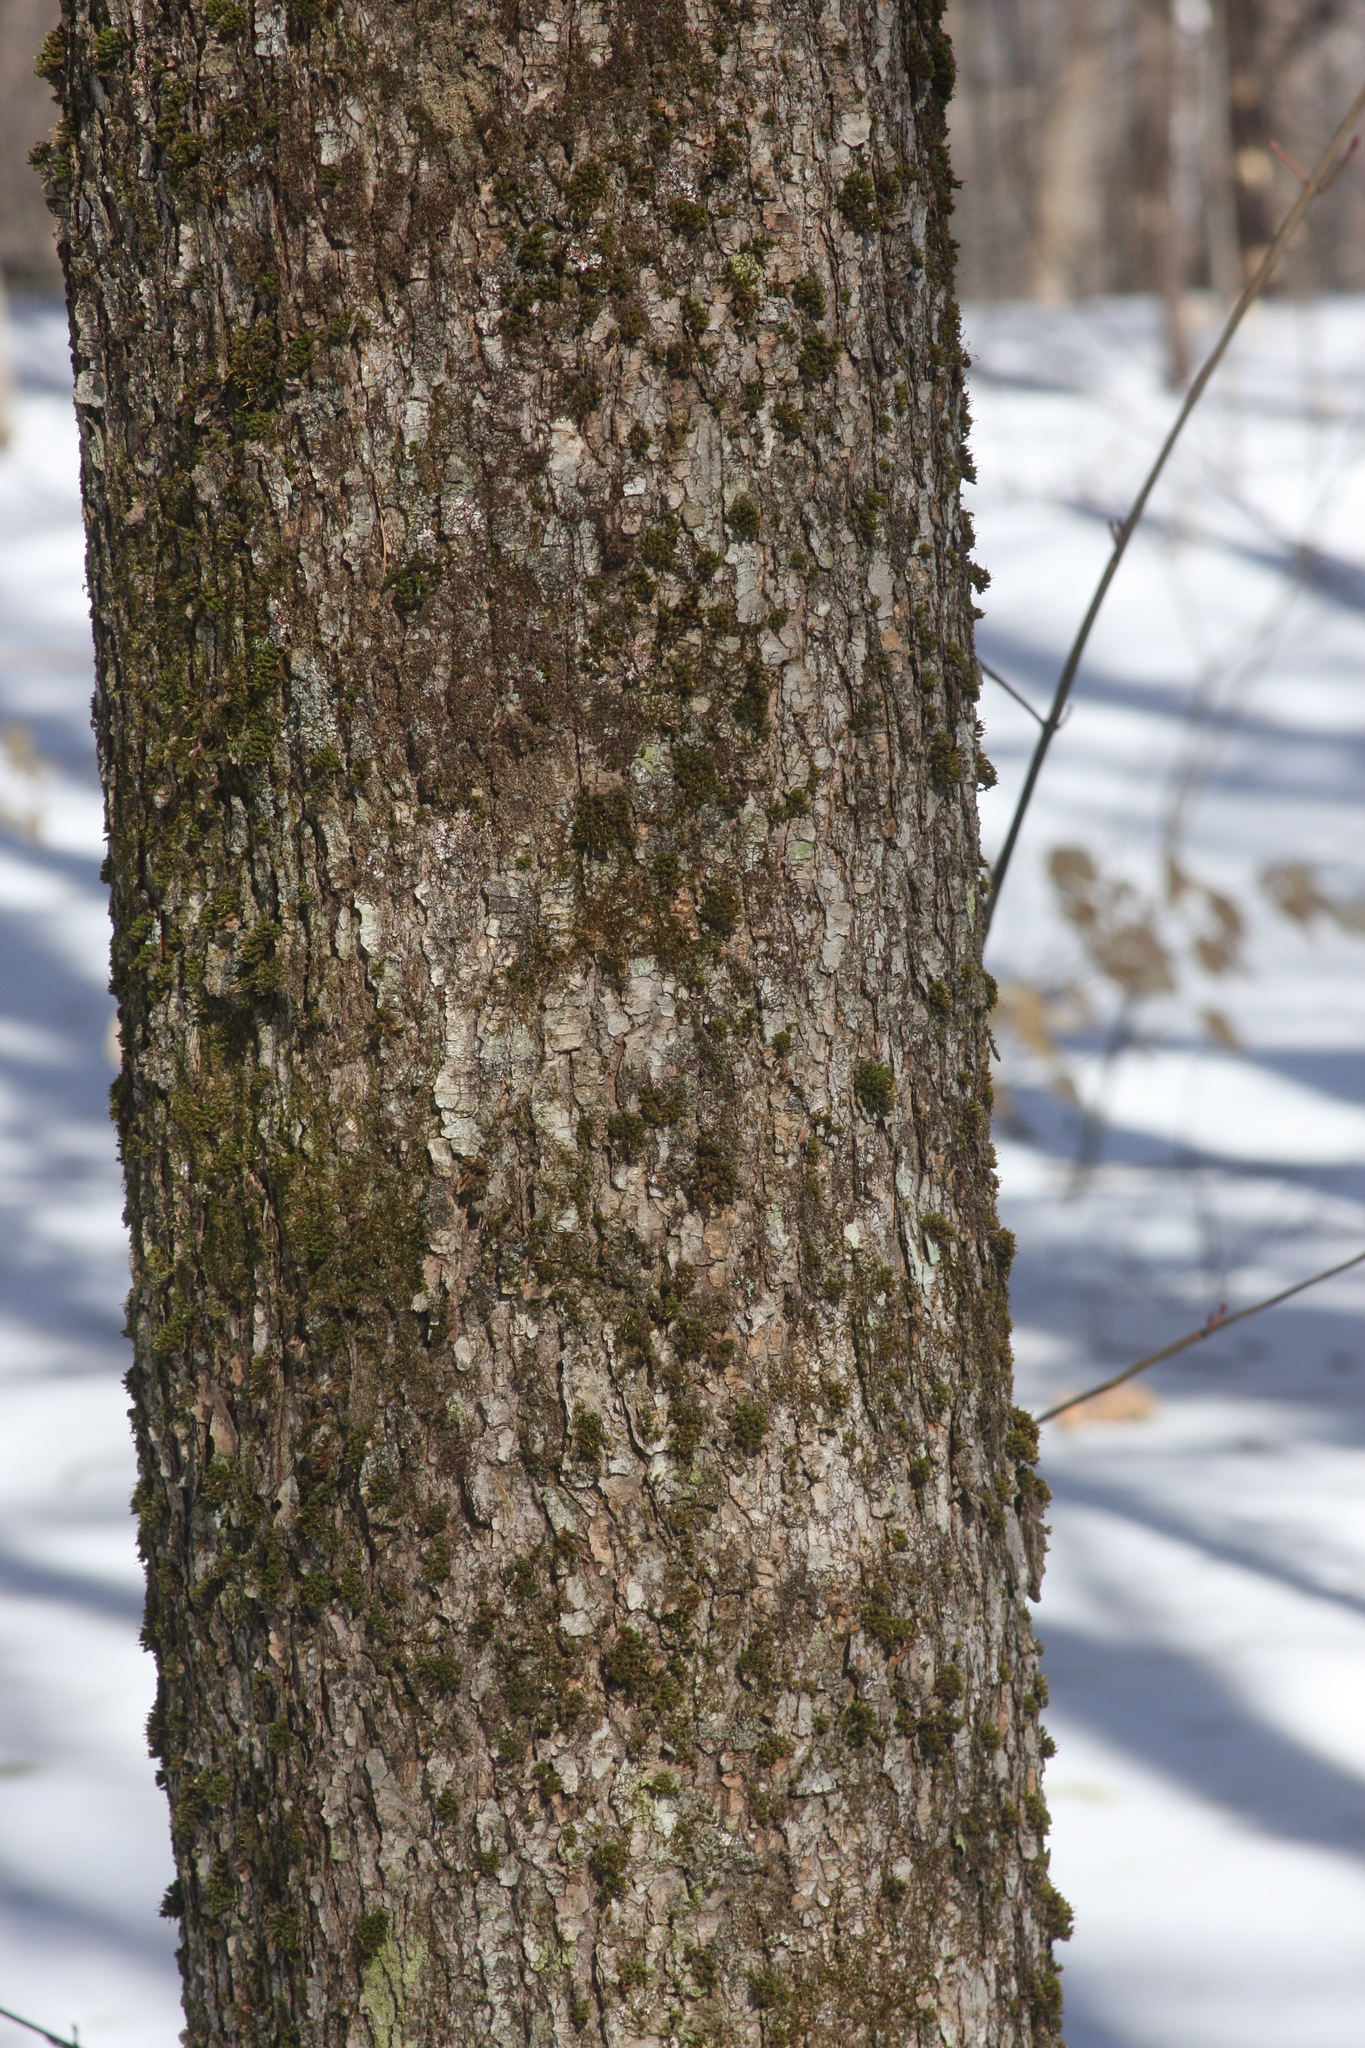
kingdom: Plantae
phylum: Bryophyta
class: Bryopsida
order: Orthotrichales
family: Orthotrichaceae
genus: Ulota
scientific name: Ulota crispa
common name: Crisped pincushion moss
